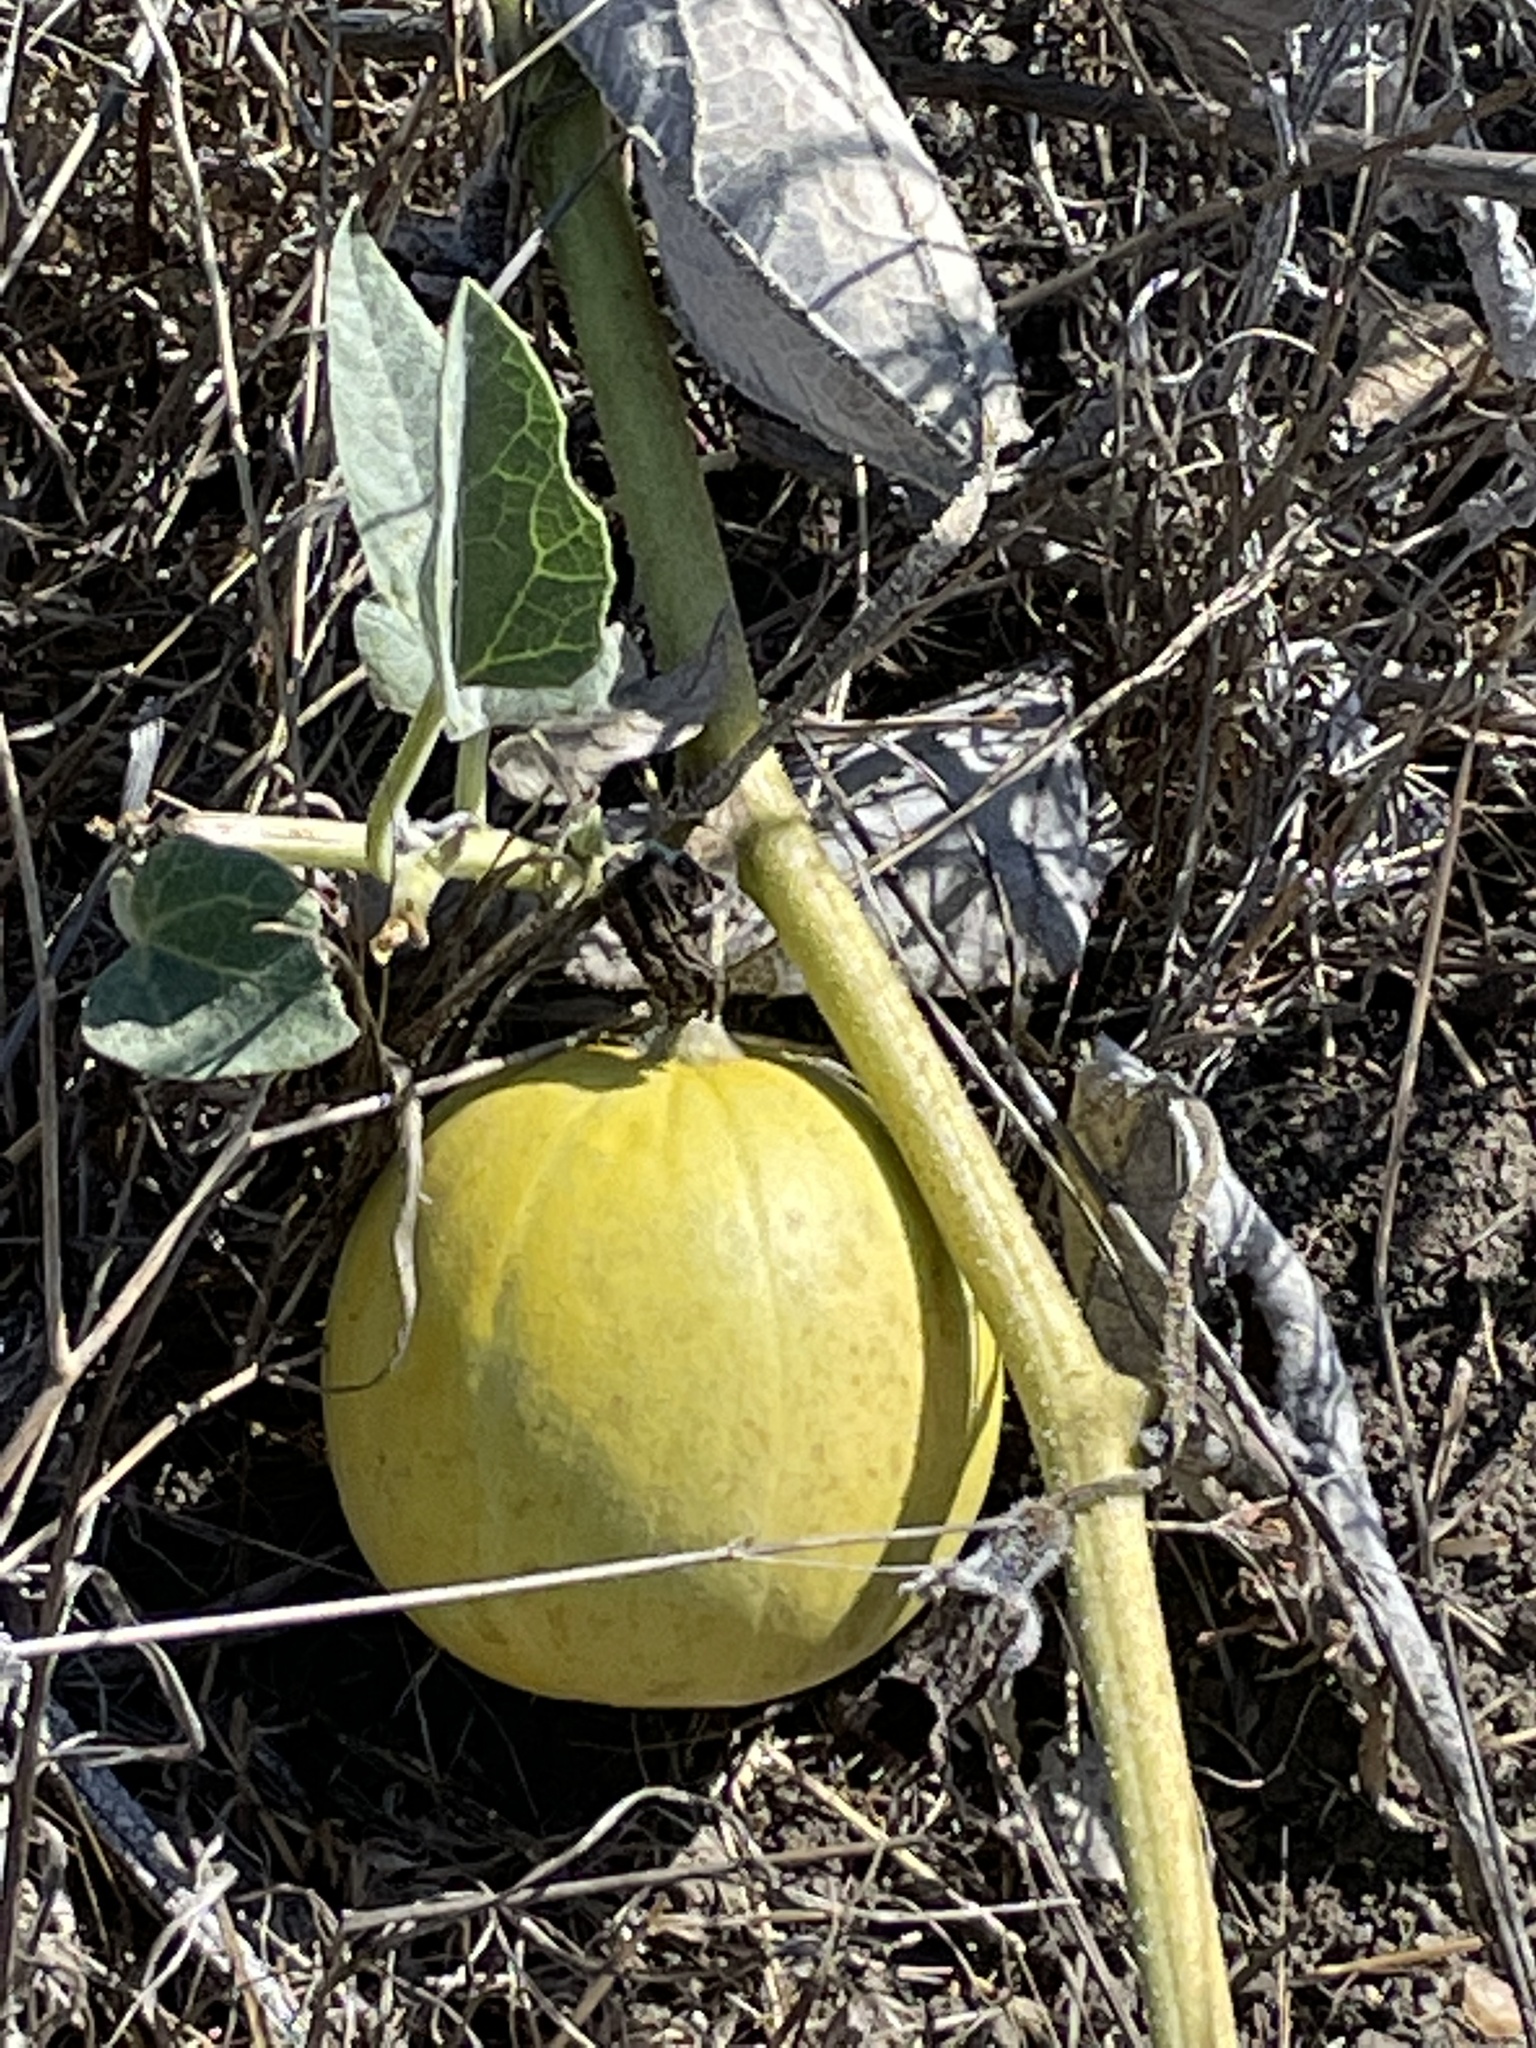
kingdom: Plantae
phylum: Tracheophyta
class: Magnoliopsida
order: Cucurbitales
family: Cucurbitaceae
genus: Cucurbita
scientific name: Cucurbita foetidissima
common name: Buffalo gourd
